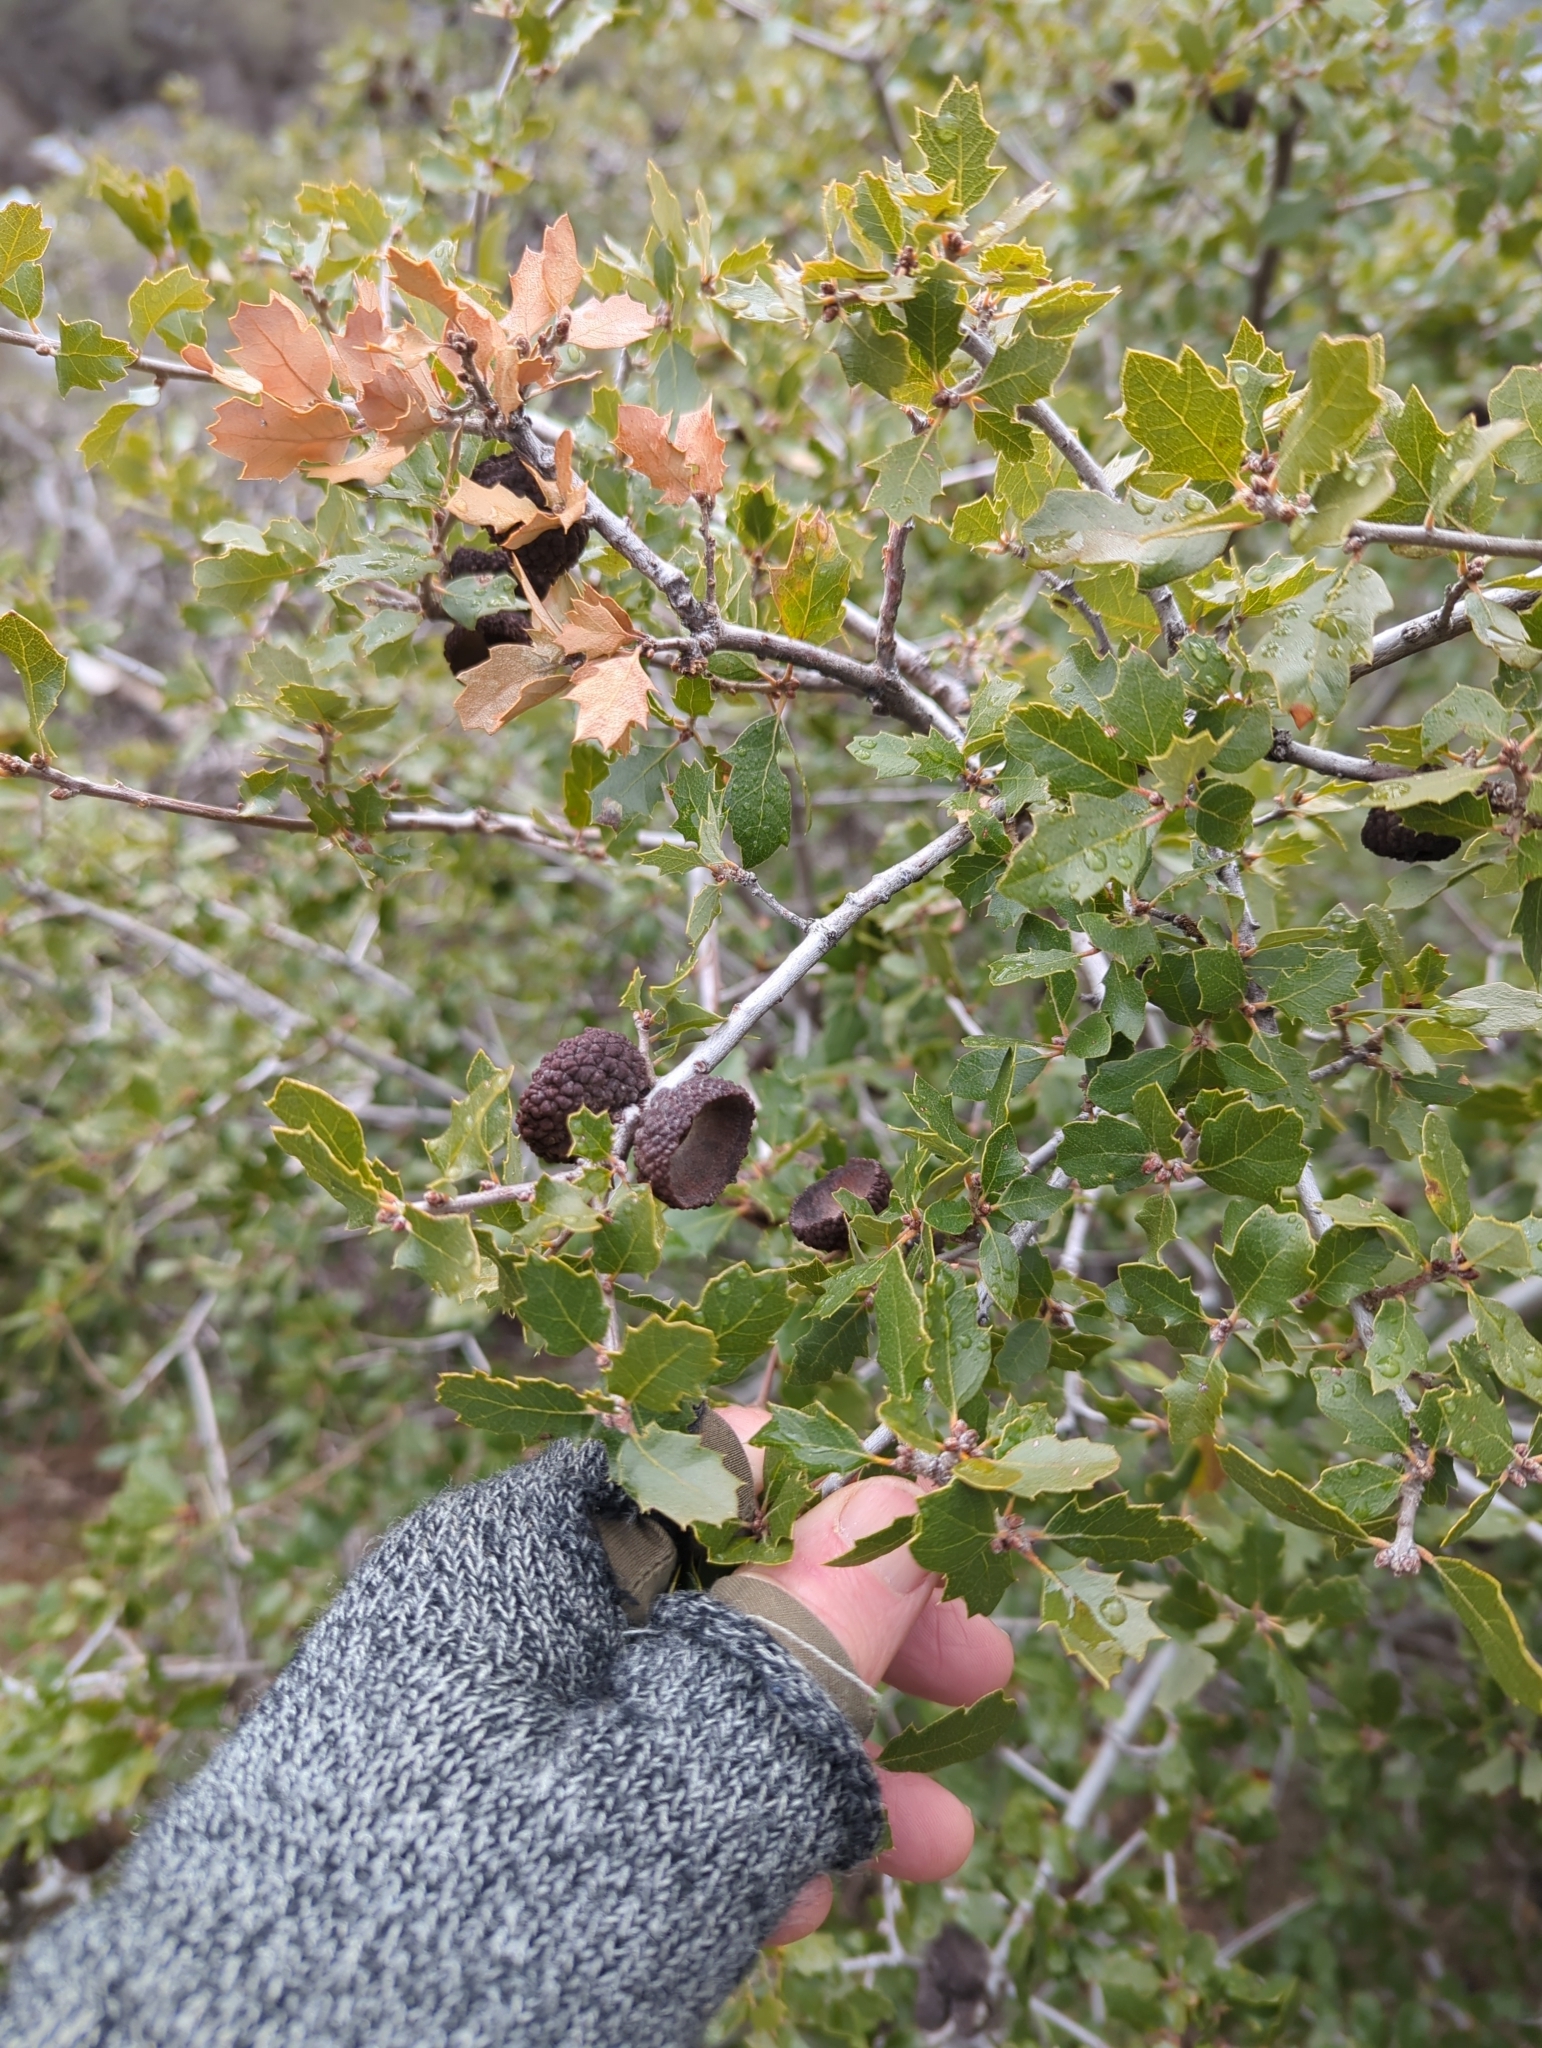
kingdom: Plantae
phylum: Tracheophyta
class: Magnoliopsida
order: Fagales
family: Fagaceae
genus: Quercus
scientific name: Quercus berberidifolia
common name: California scrub oak
